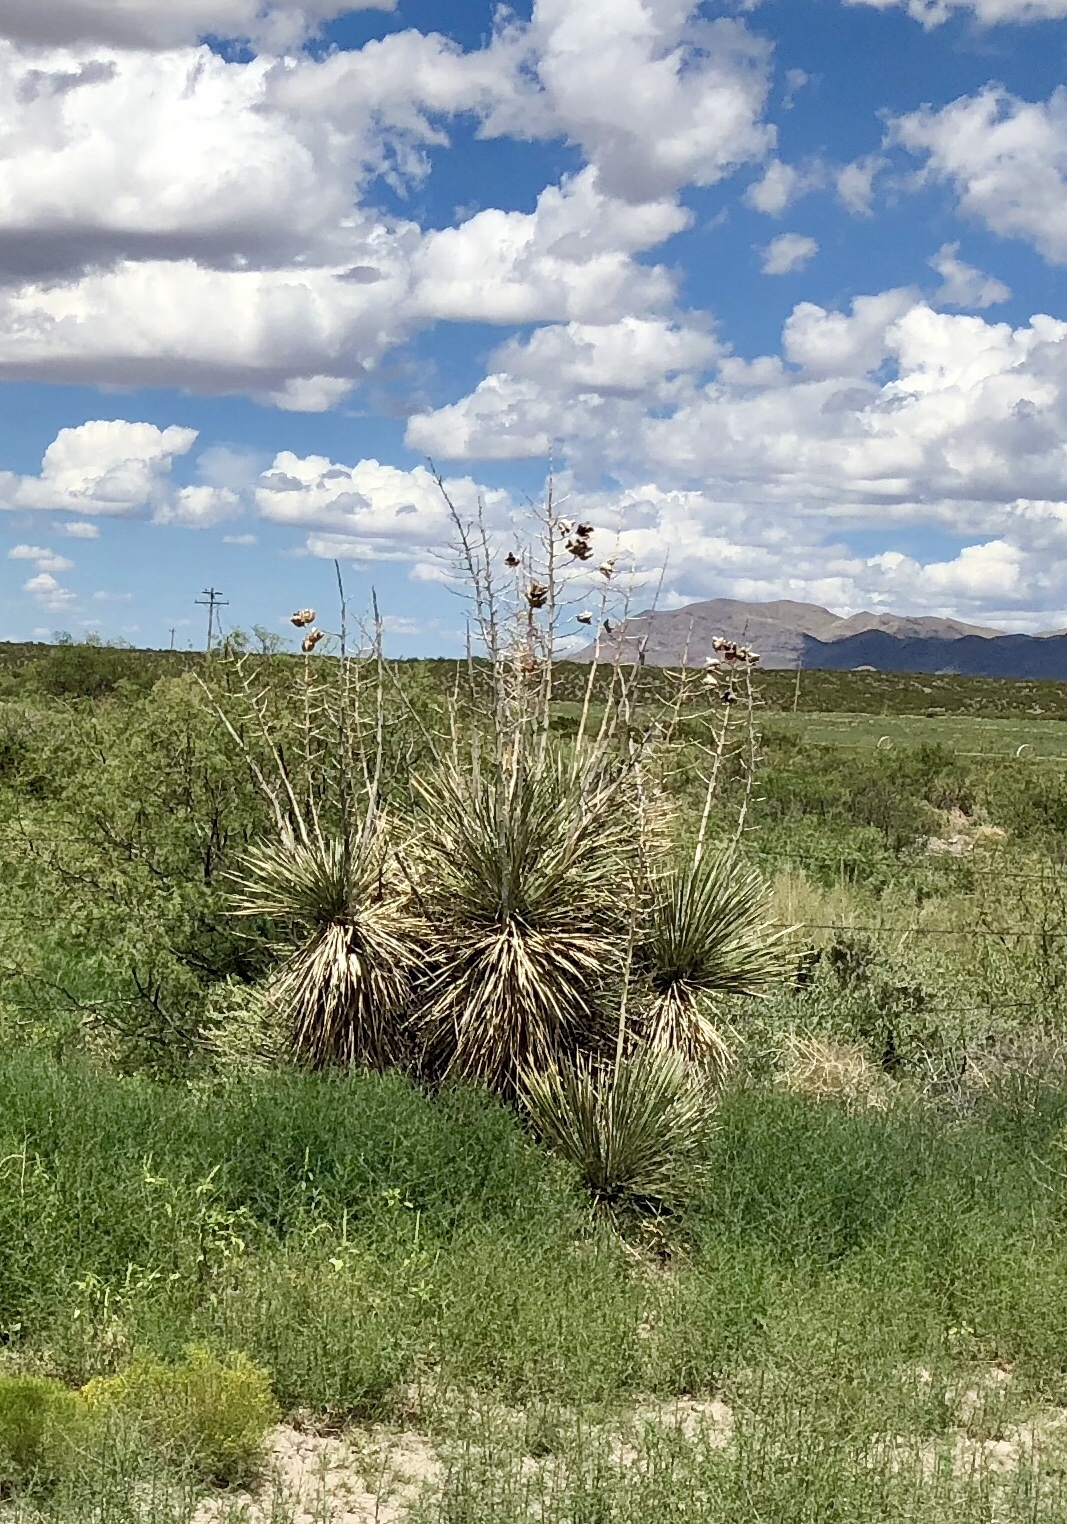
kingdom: Plantae
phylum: Tracheophyta
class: Liliopsida
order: Asparagales
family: Asparagaceae
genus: Yucca
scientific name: Yucca elata
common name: Palmella
